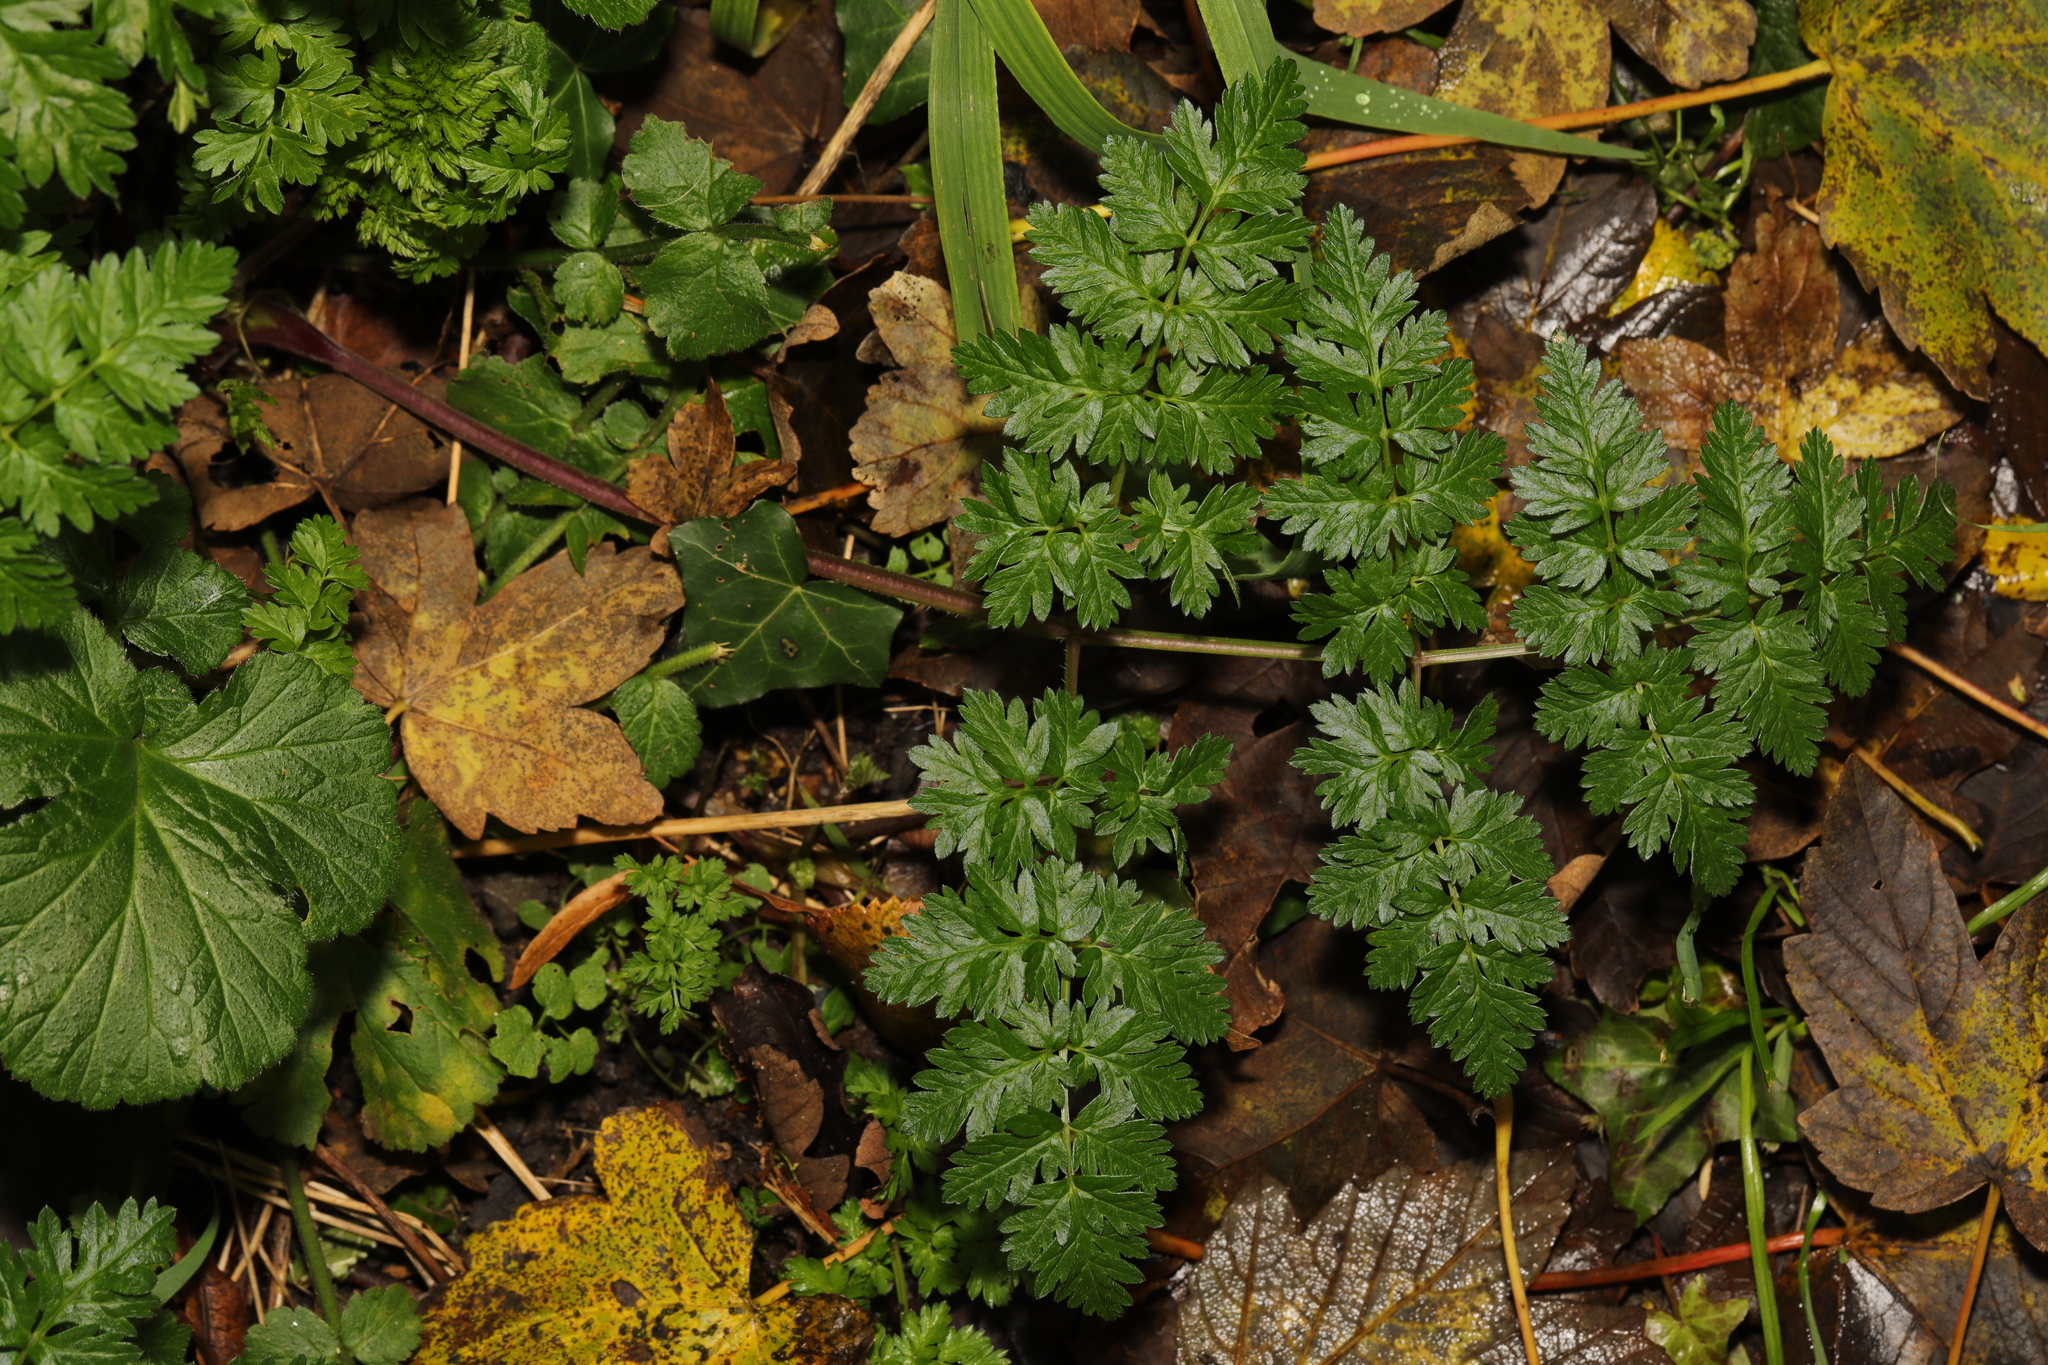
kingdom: Plantae
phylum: Tracheophyta
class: Magnoliopsida
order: Apiales
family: Apiaceae
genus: Anthriscus
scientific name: Anthriscus sylvestris
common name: Cow parsley
